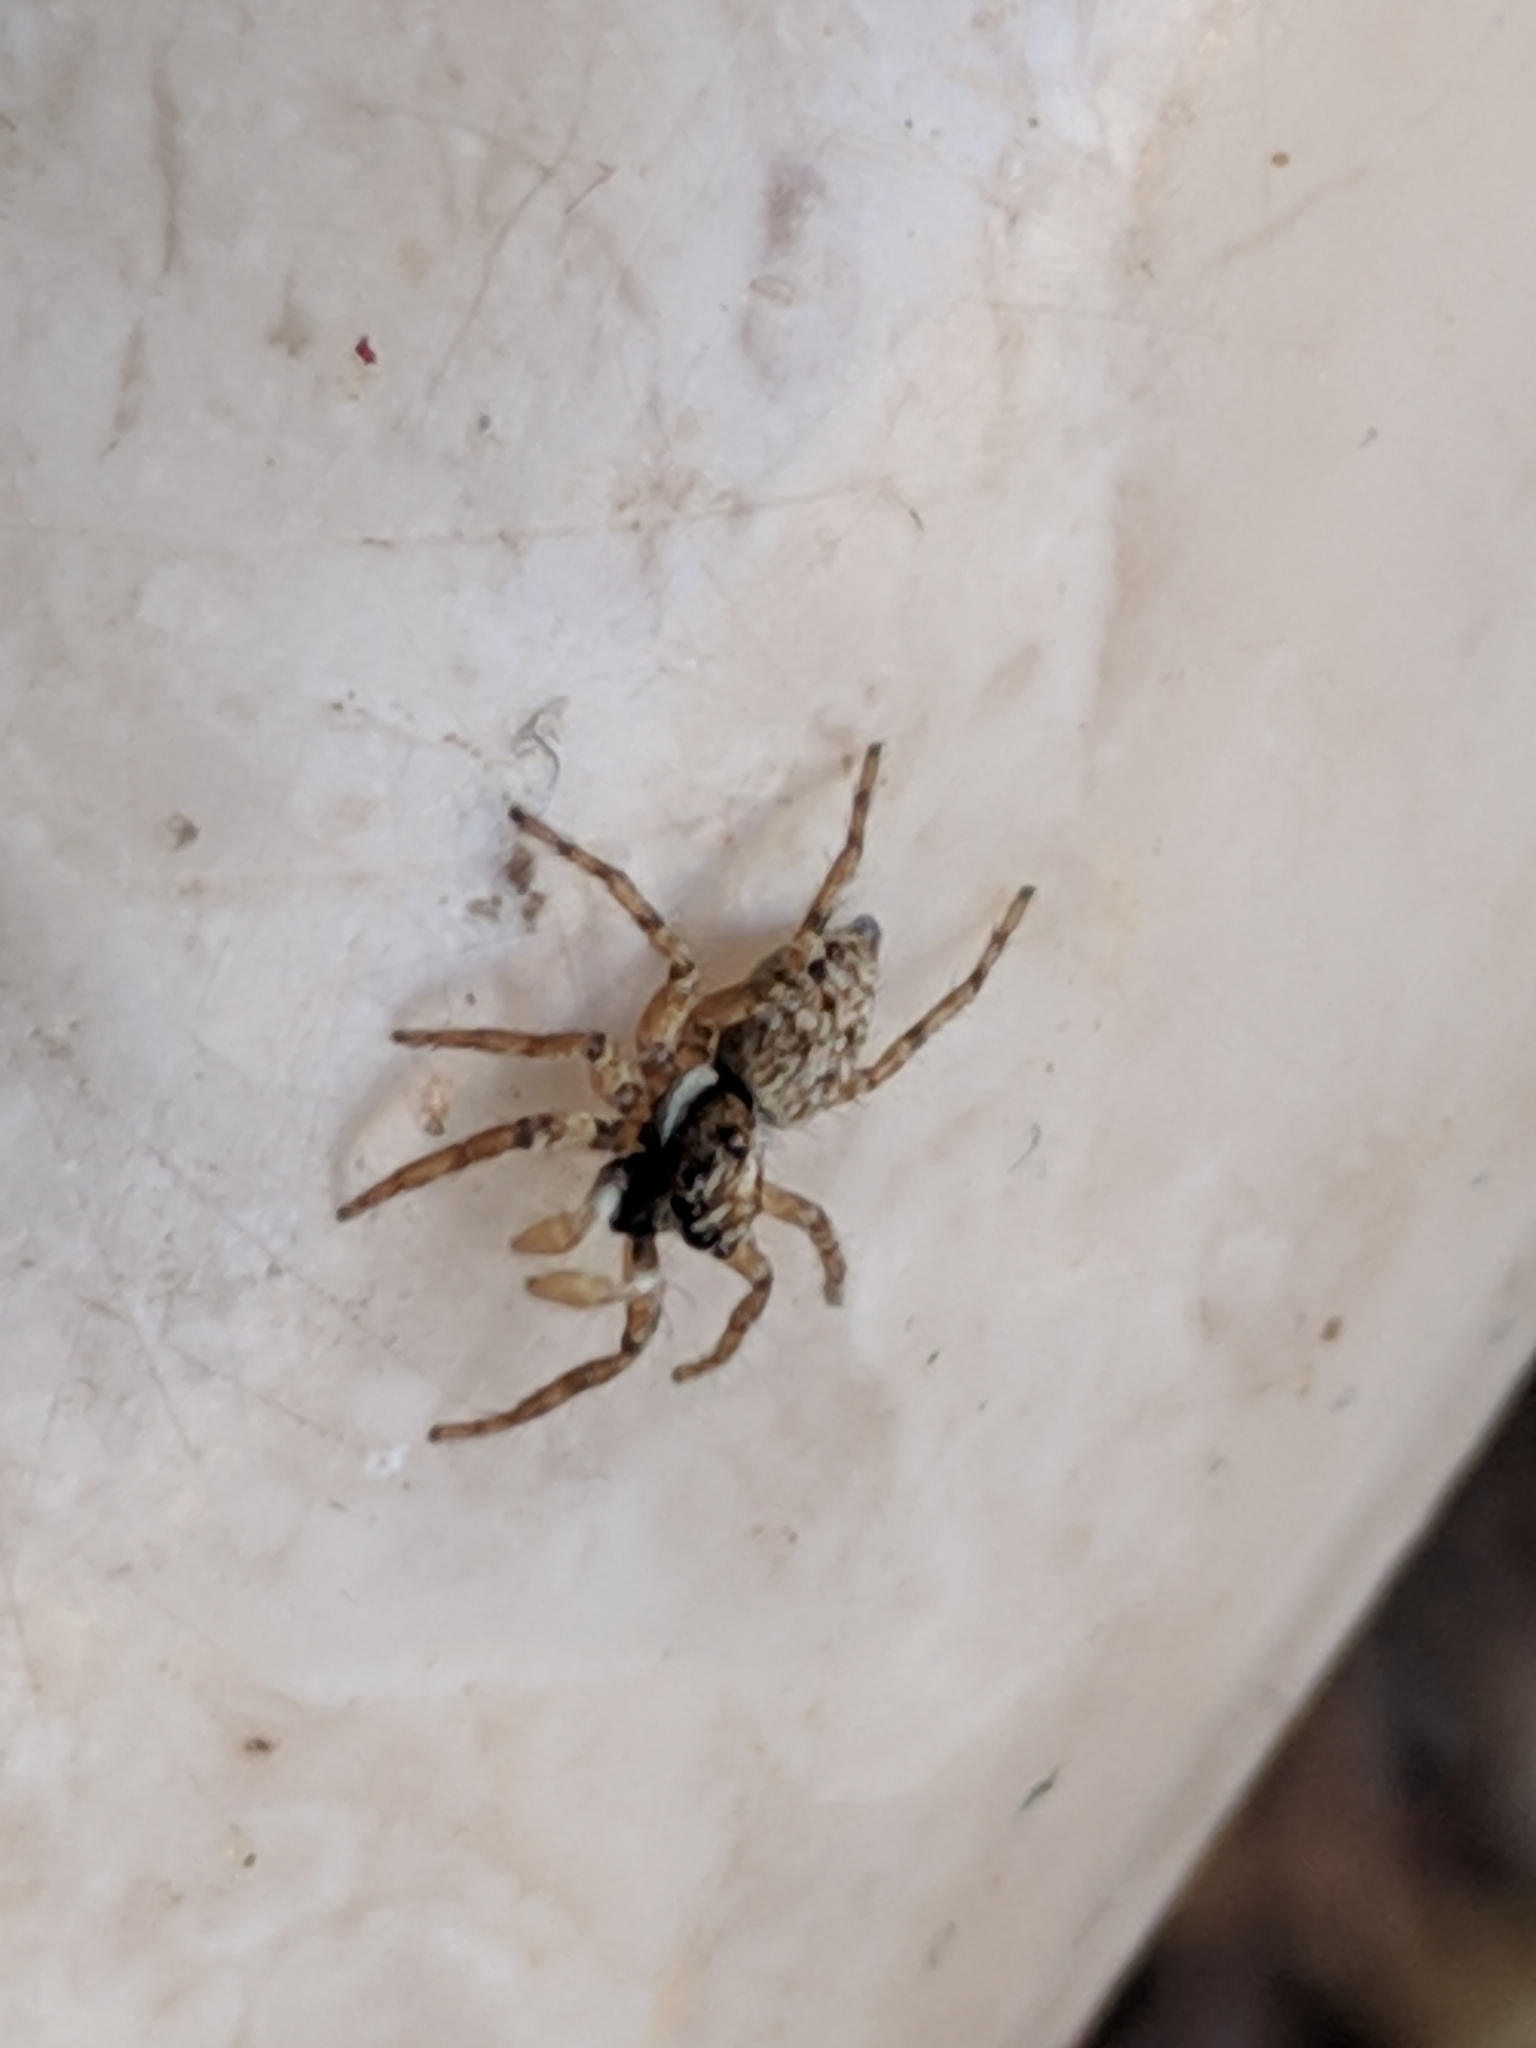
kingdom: Animalia
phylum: Arthropoda
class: Arachnida
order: Araneae
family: Salticidae
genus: Menemerus
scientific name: Menemerus semilimbatus
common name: Jumping spider
